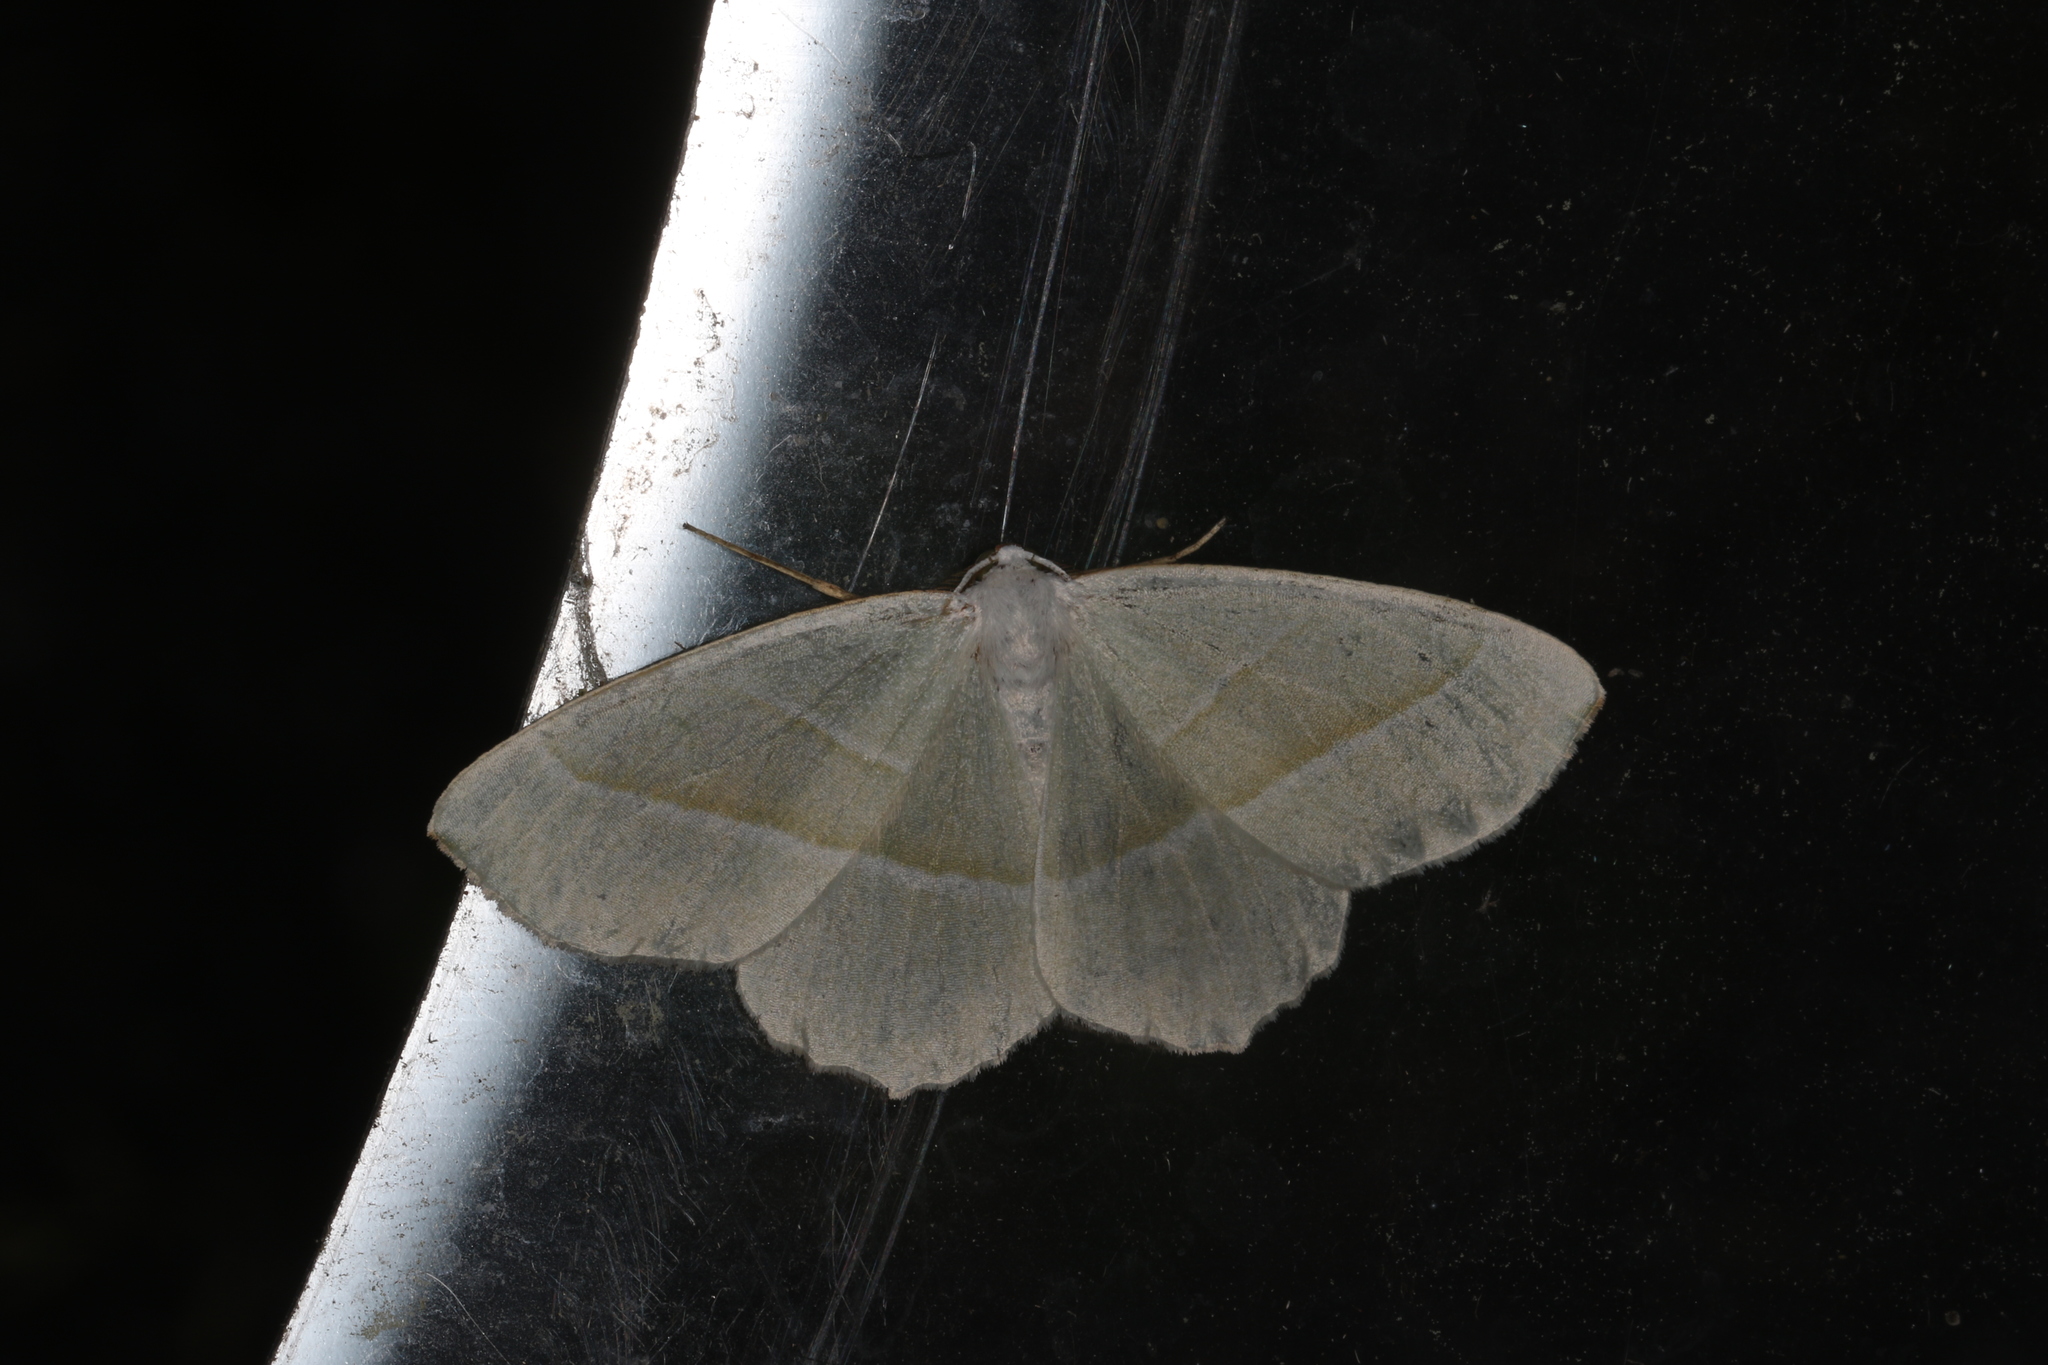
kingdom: Animalia
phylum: Arthropoda
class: Insecta
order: Lepidoptera
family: Geometridae
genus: Campaea
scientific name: Campaea margaritaria
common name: Light emerald
